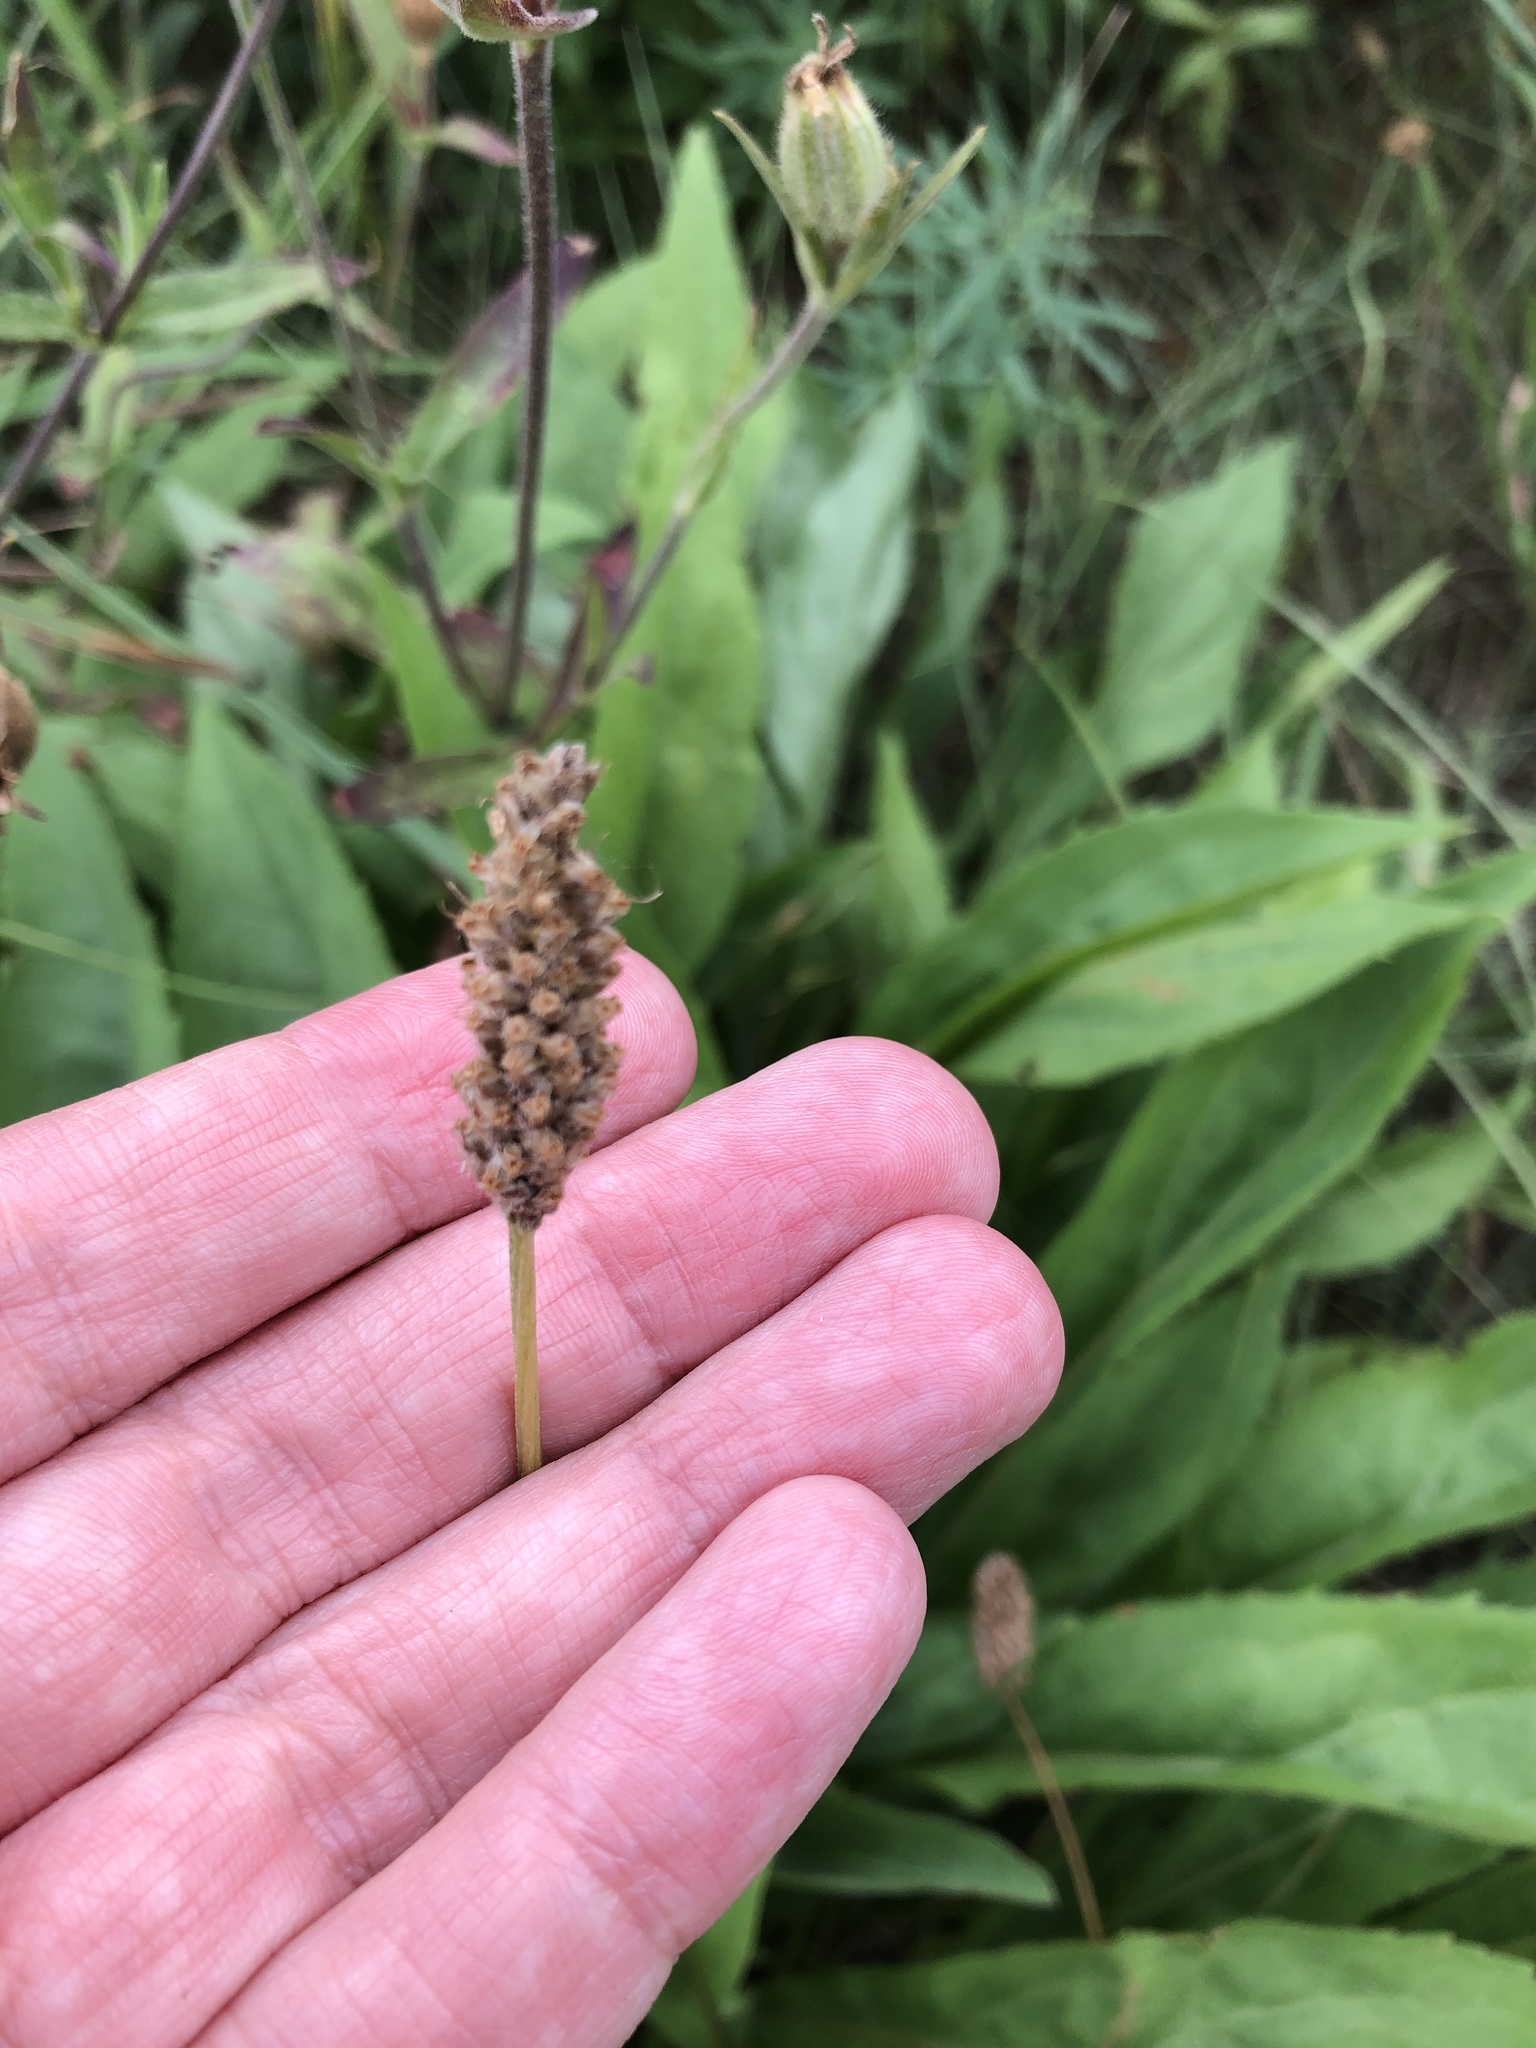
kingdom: Plantae
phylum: Tracheophyta
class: Magnoliopsida
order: Lamiales
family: Plantaginaceae
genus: Plantago
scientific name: Plantago lanceolata
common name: Ribwort plantain
